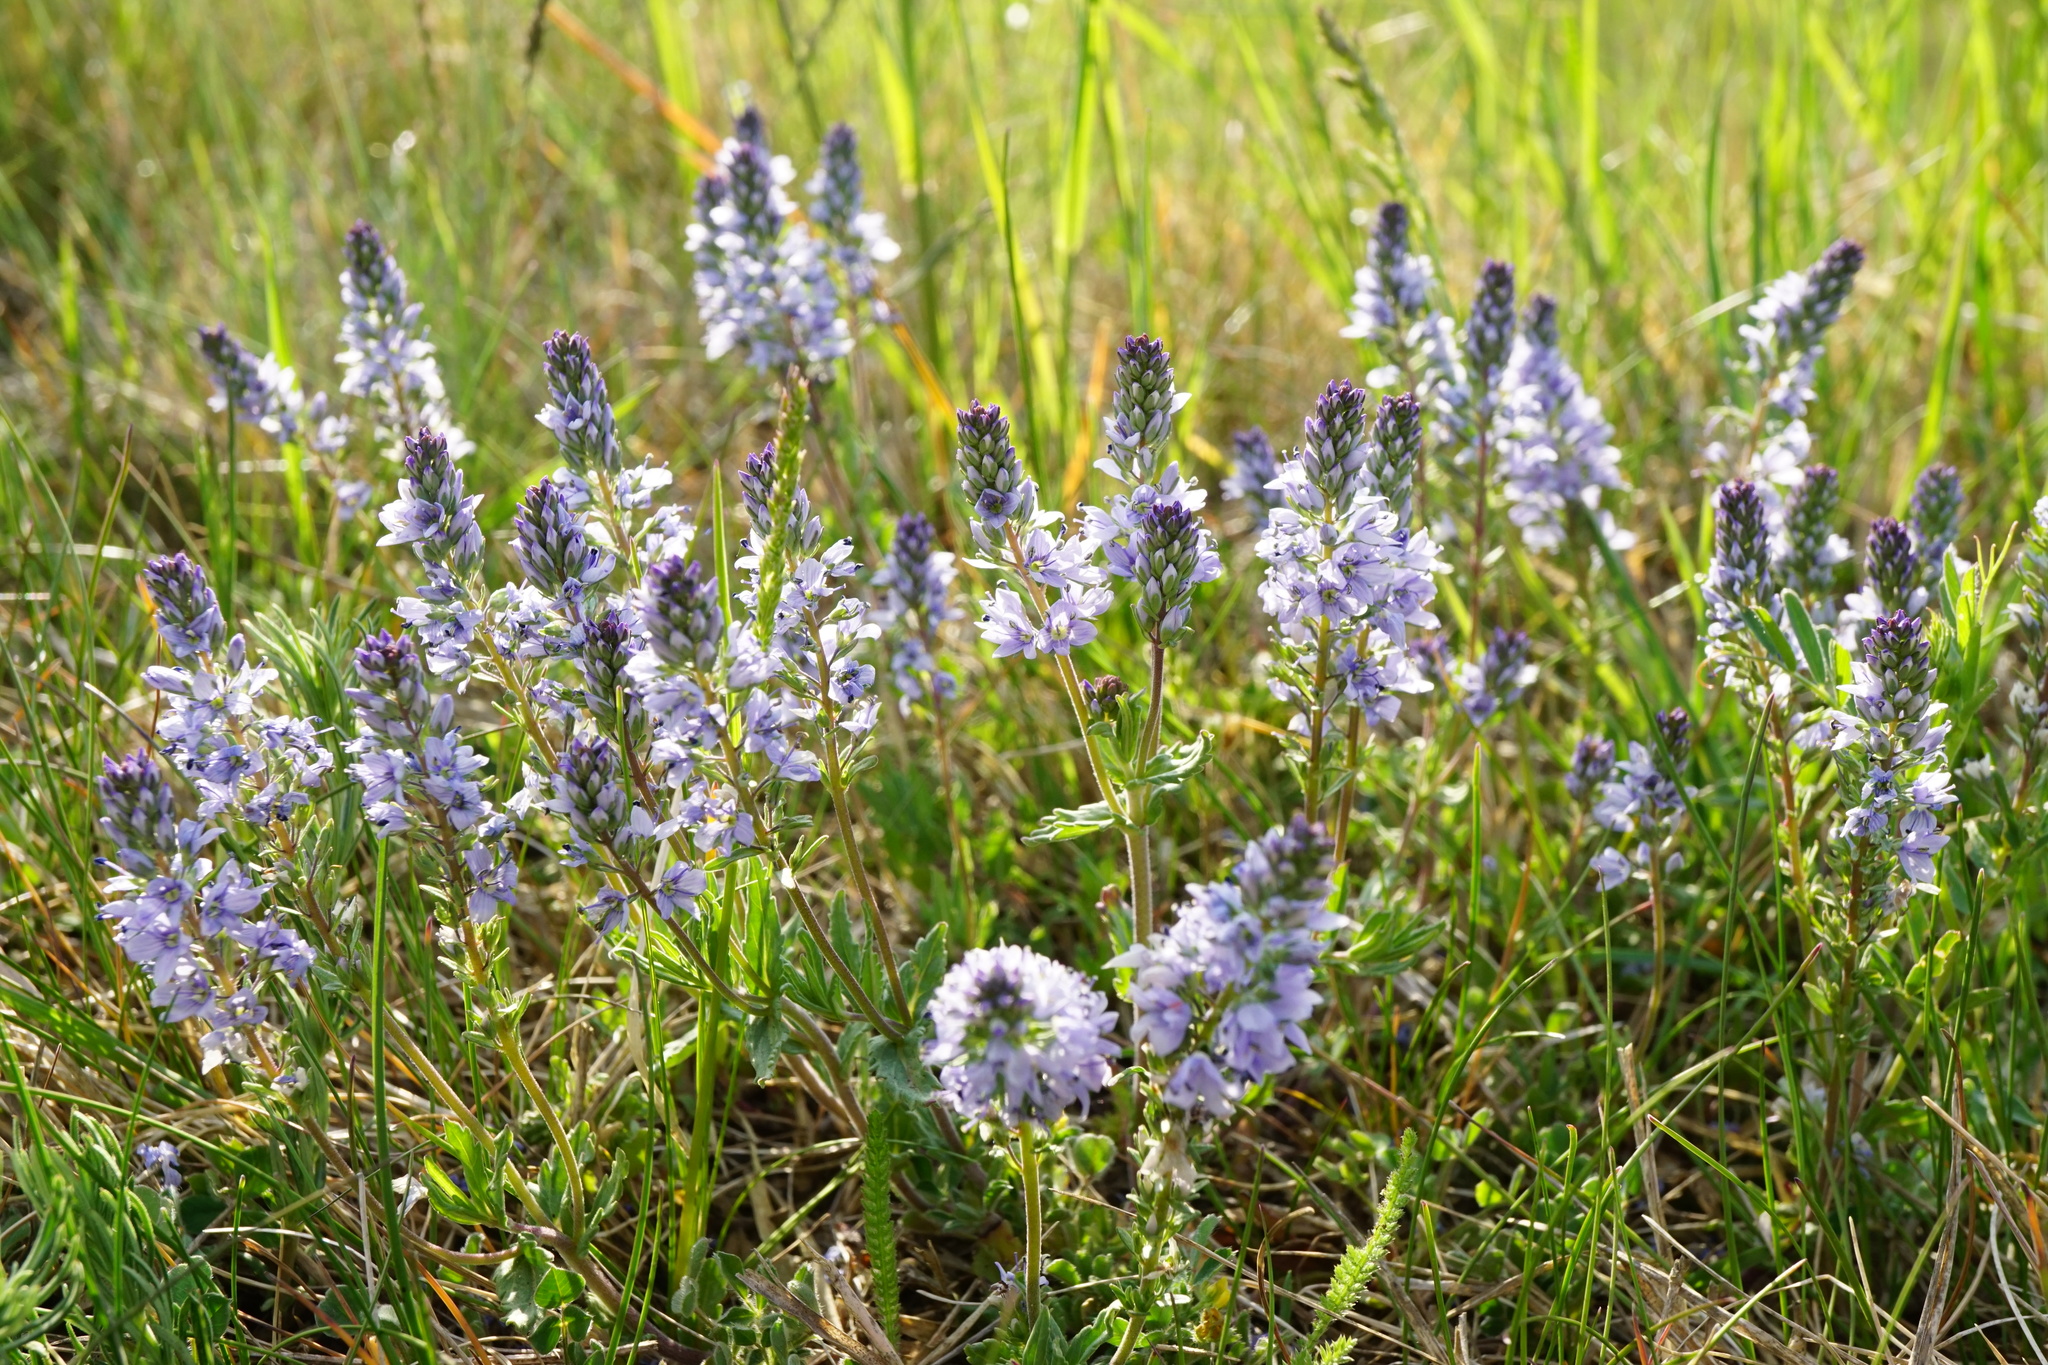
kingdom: Plantae
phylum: Tracheophyta
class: Magnoliopsida
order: Lamiales
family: Plantaginaceae
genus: Veronica
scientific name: Veronica prostrata
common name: Prostrate speedwell
